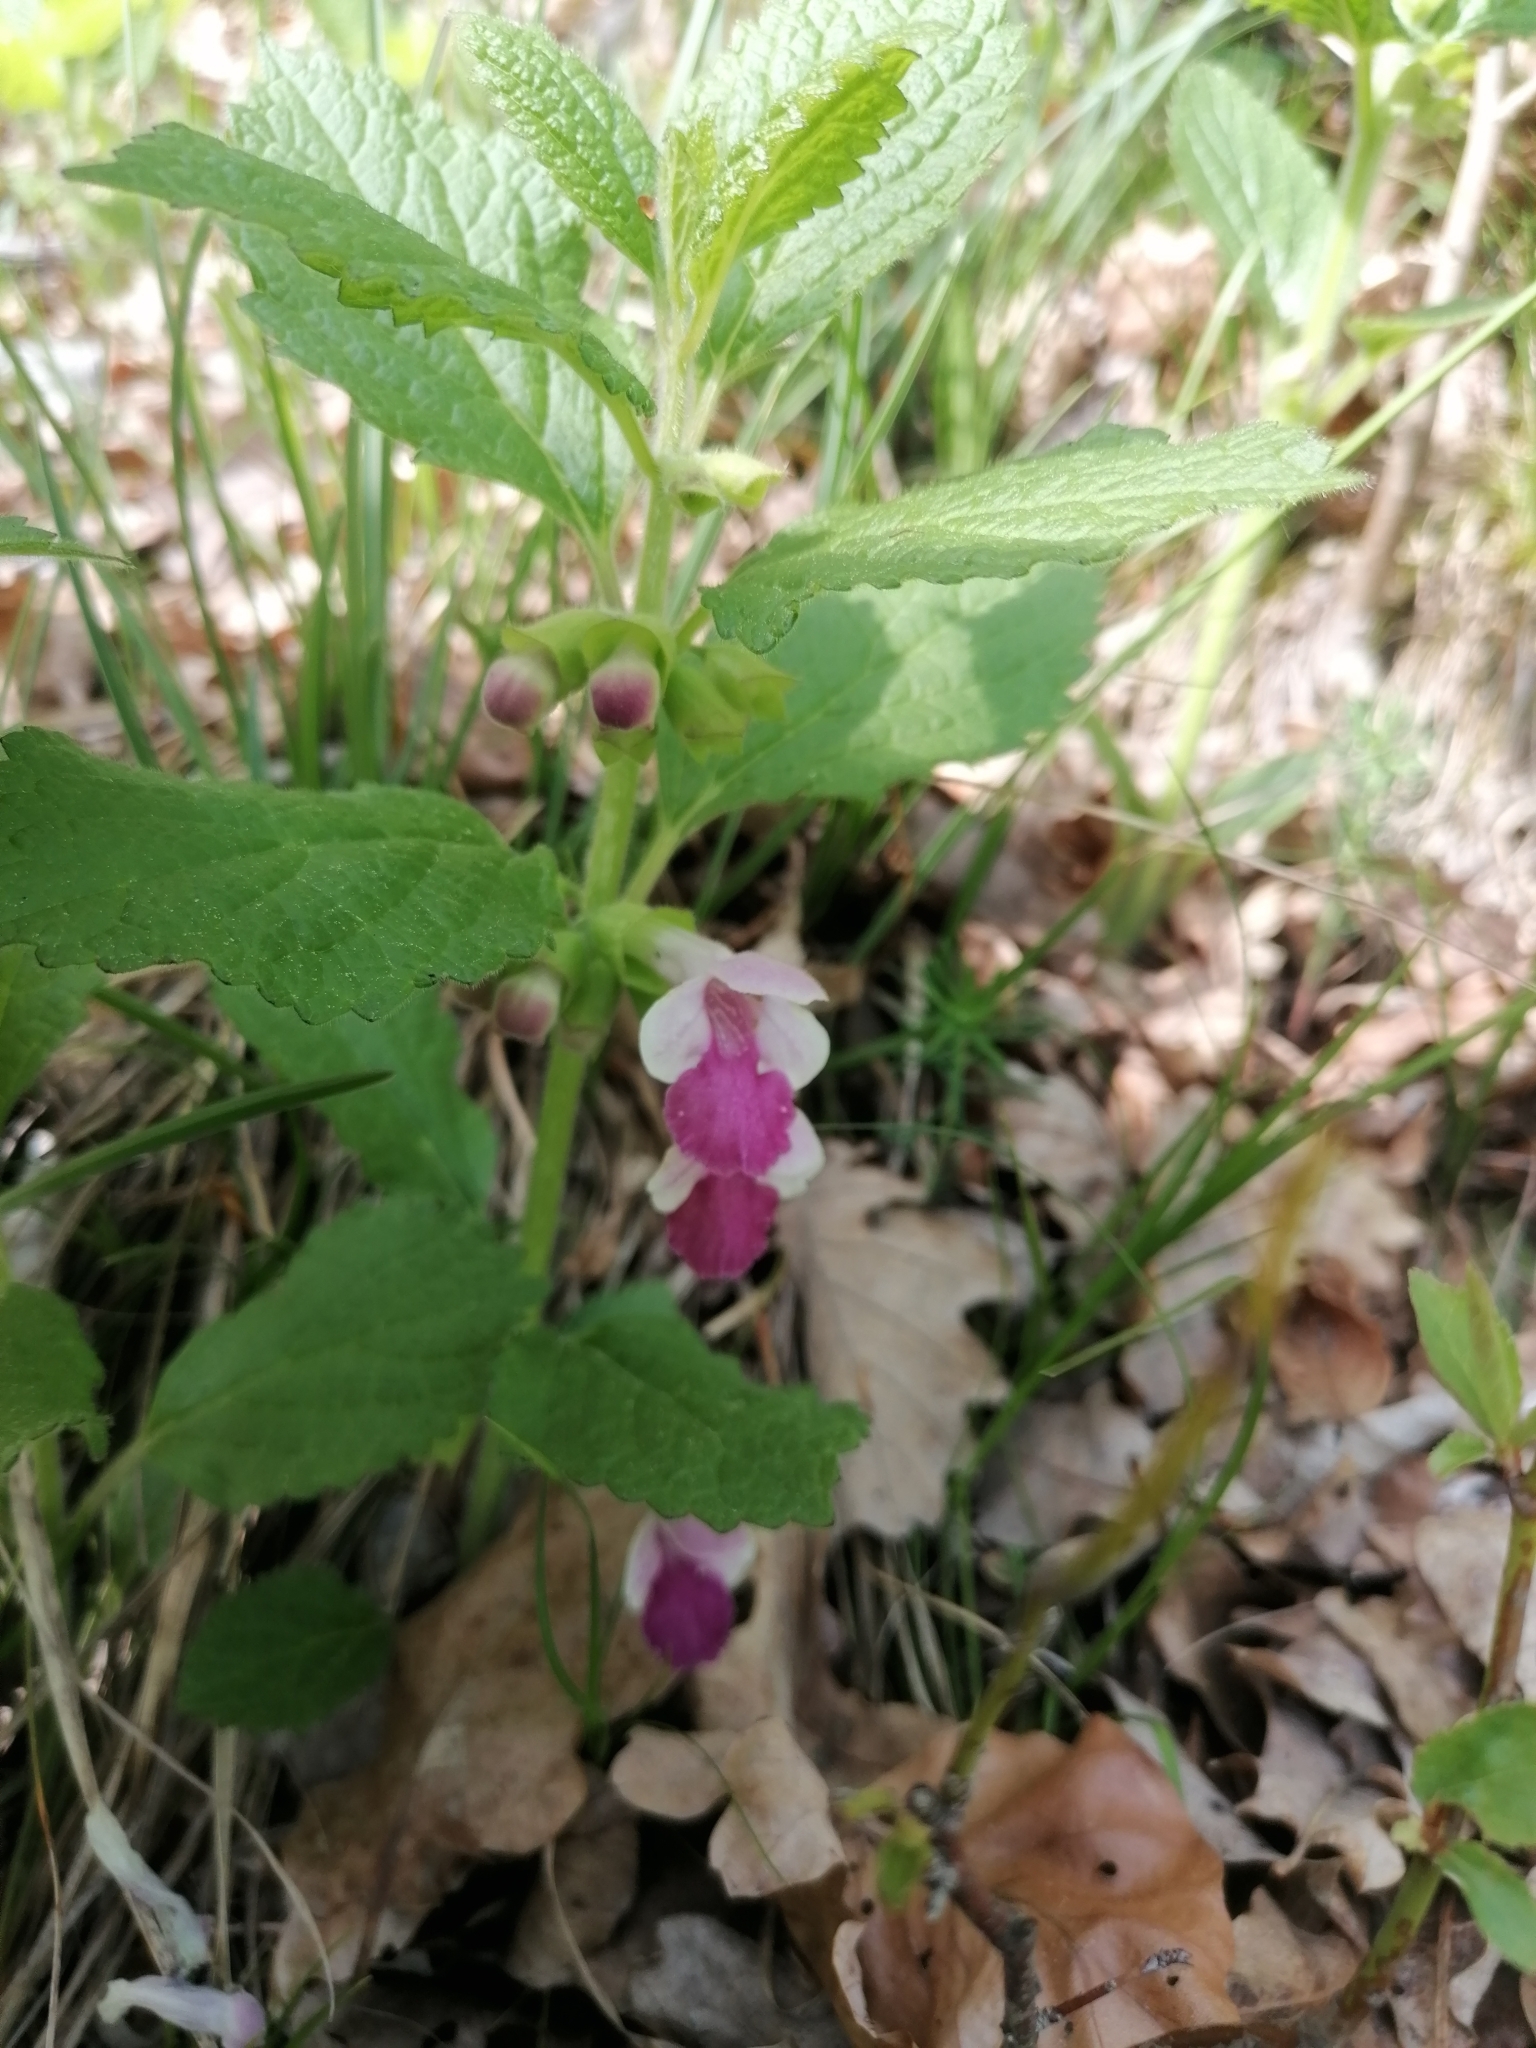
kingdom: Plantae
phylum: Tracheophyta
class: Magnoliopsida
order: Lamiales
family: Lamiaceae
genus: Melittis
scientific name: Melittis melissophyllum
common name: Bastard balm
